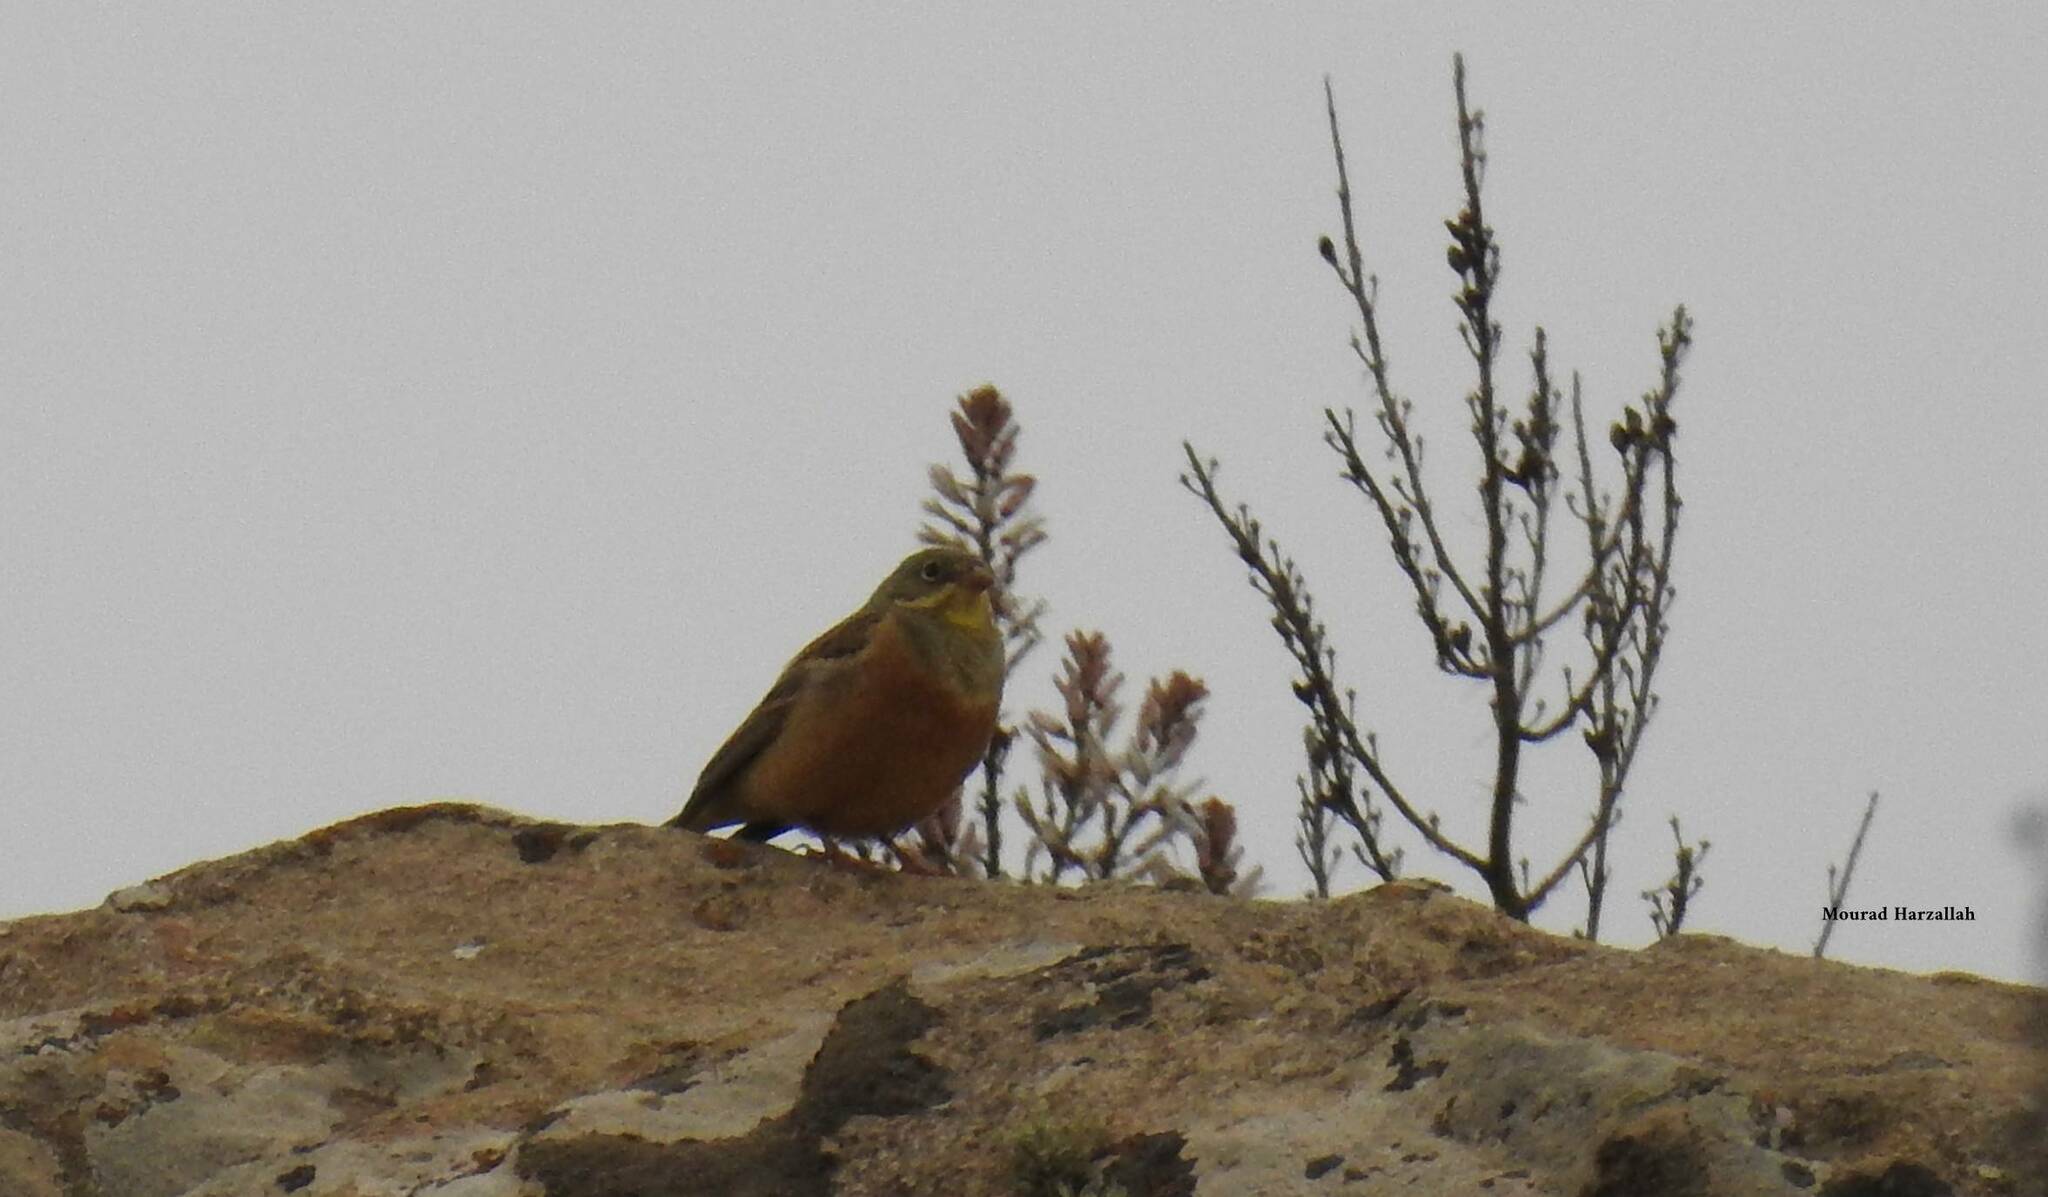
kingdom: Animalia
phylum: Chordata
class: Aves
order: Passeriformes
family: Emberizidae
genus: Emberiza
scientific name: Emberiza hortulana
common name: Ortolan bunting
